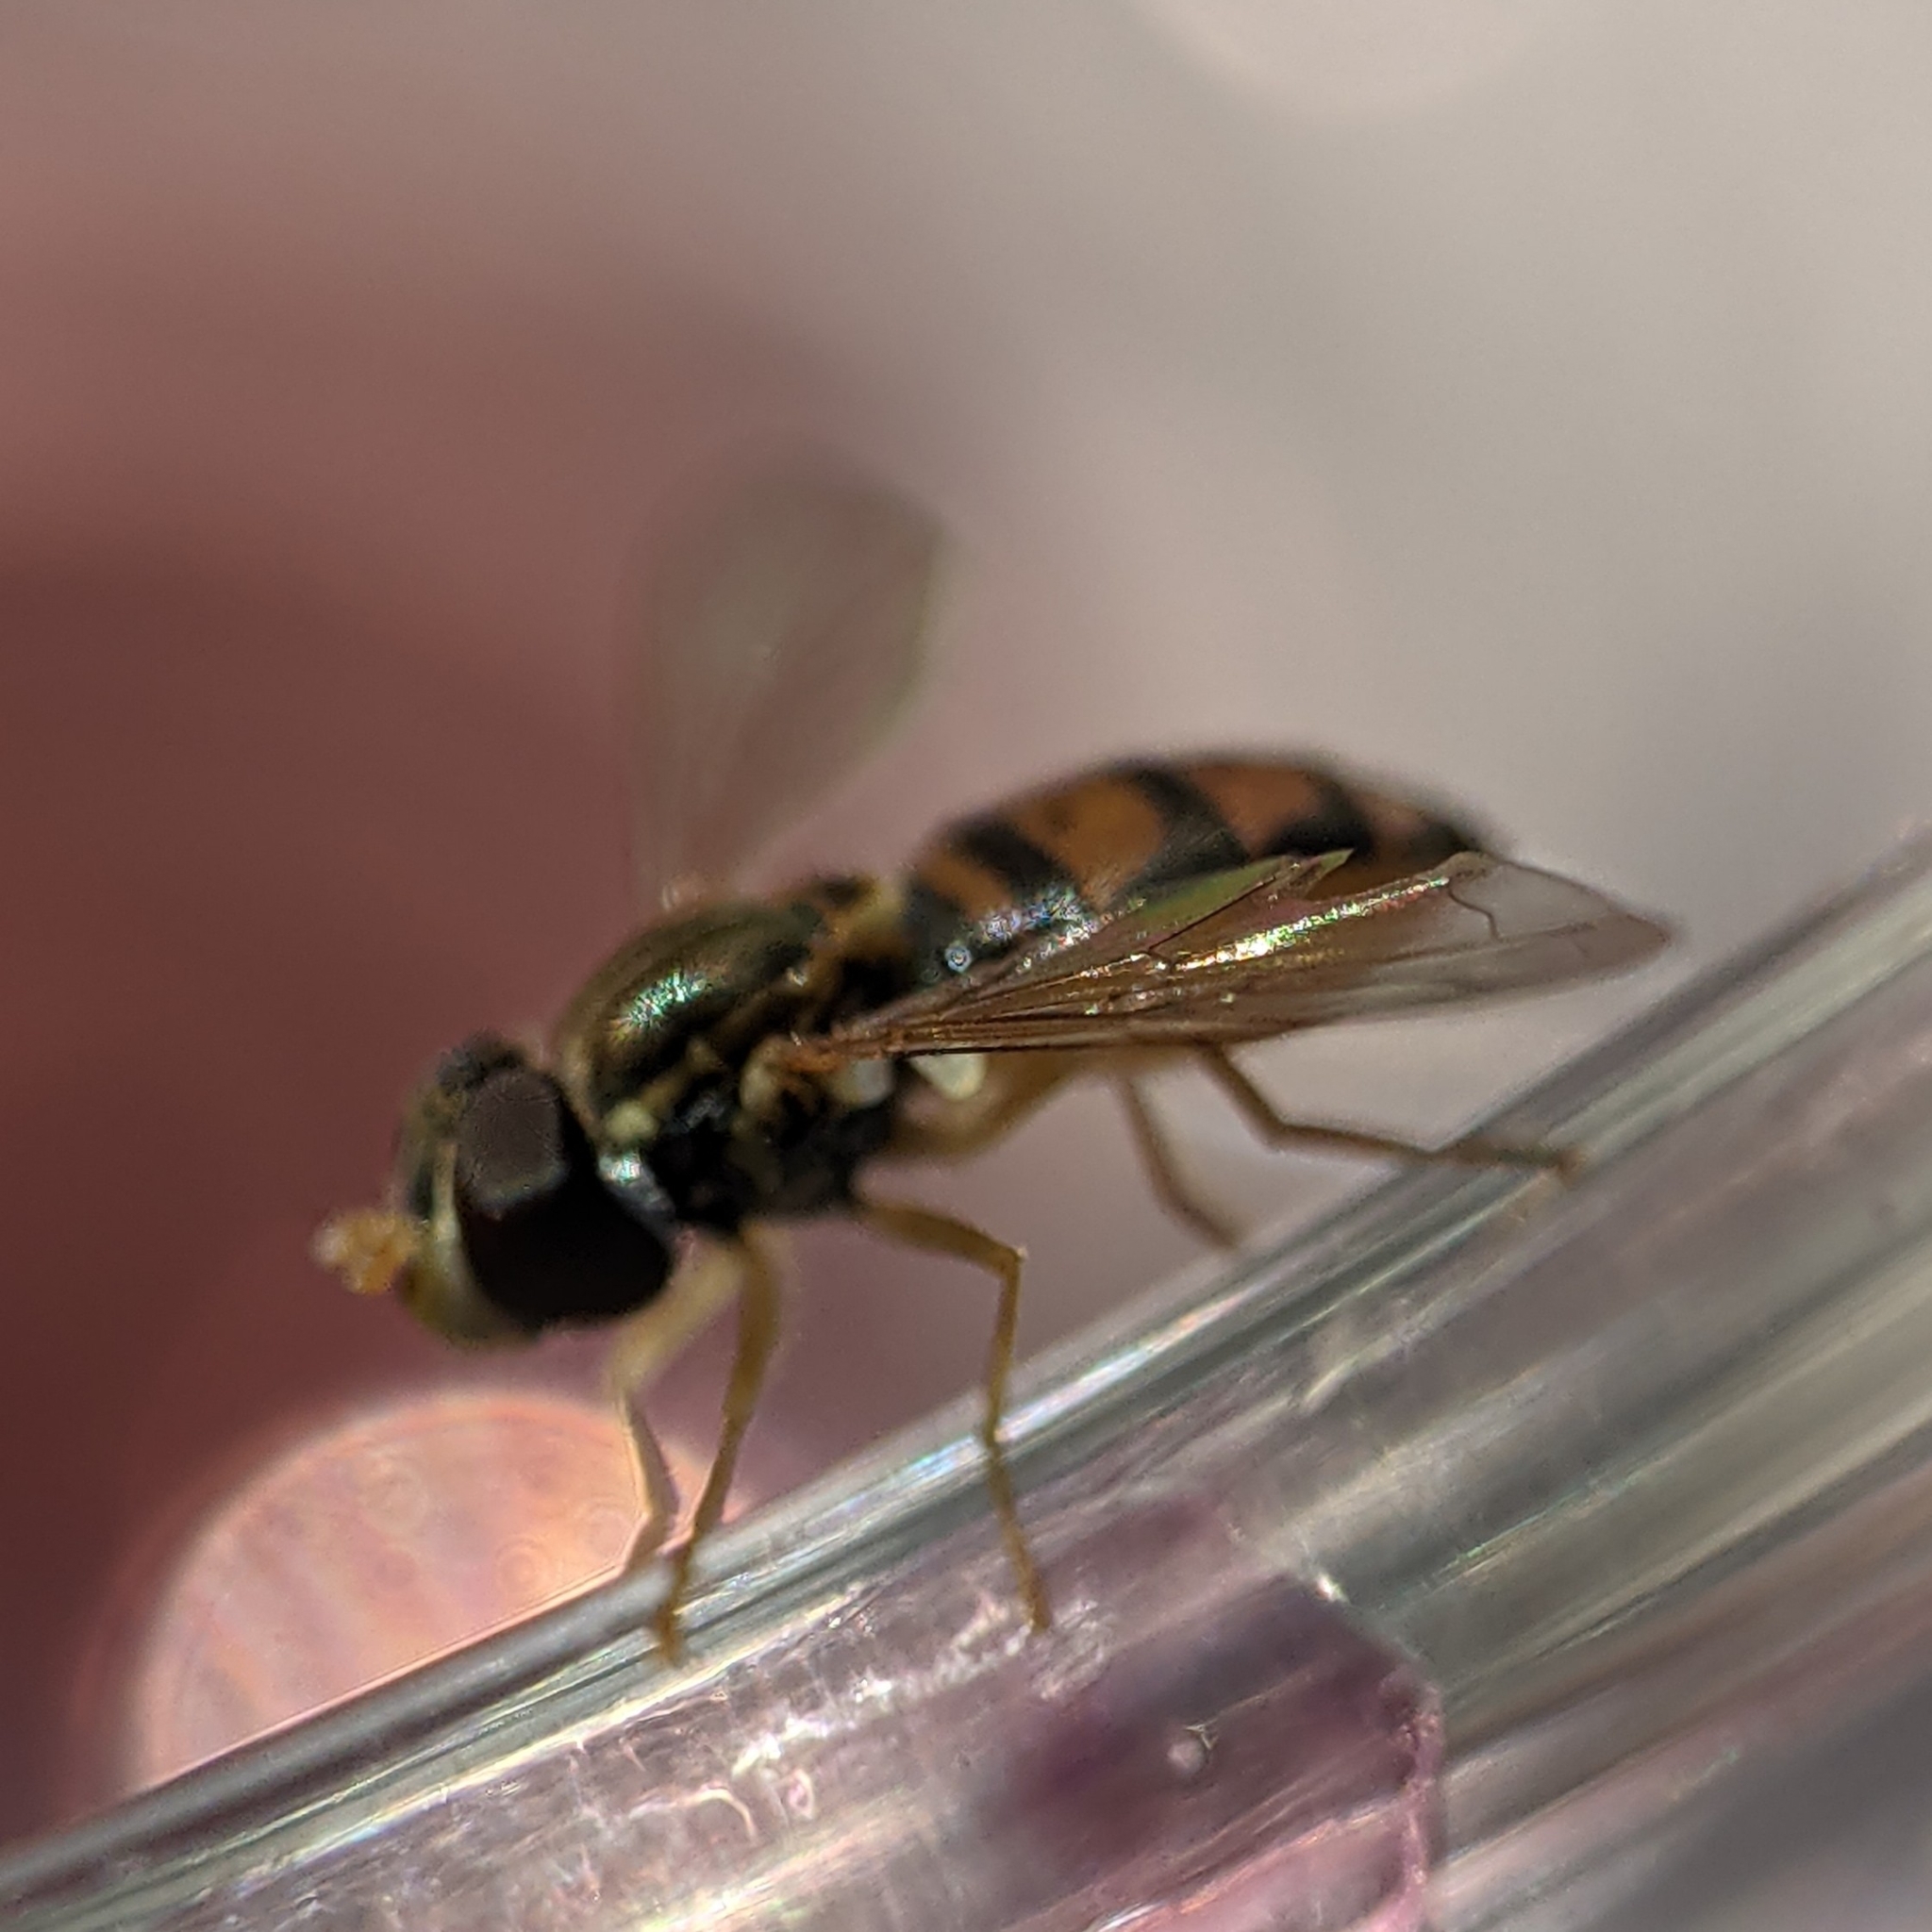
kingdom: Animalia
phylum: Arthropoda
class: Insecta
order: Diptera
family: Syrphidae
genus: Toxomerus
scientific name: Toxomerus marginatus
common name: Syrphid fly
